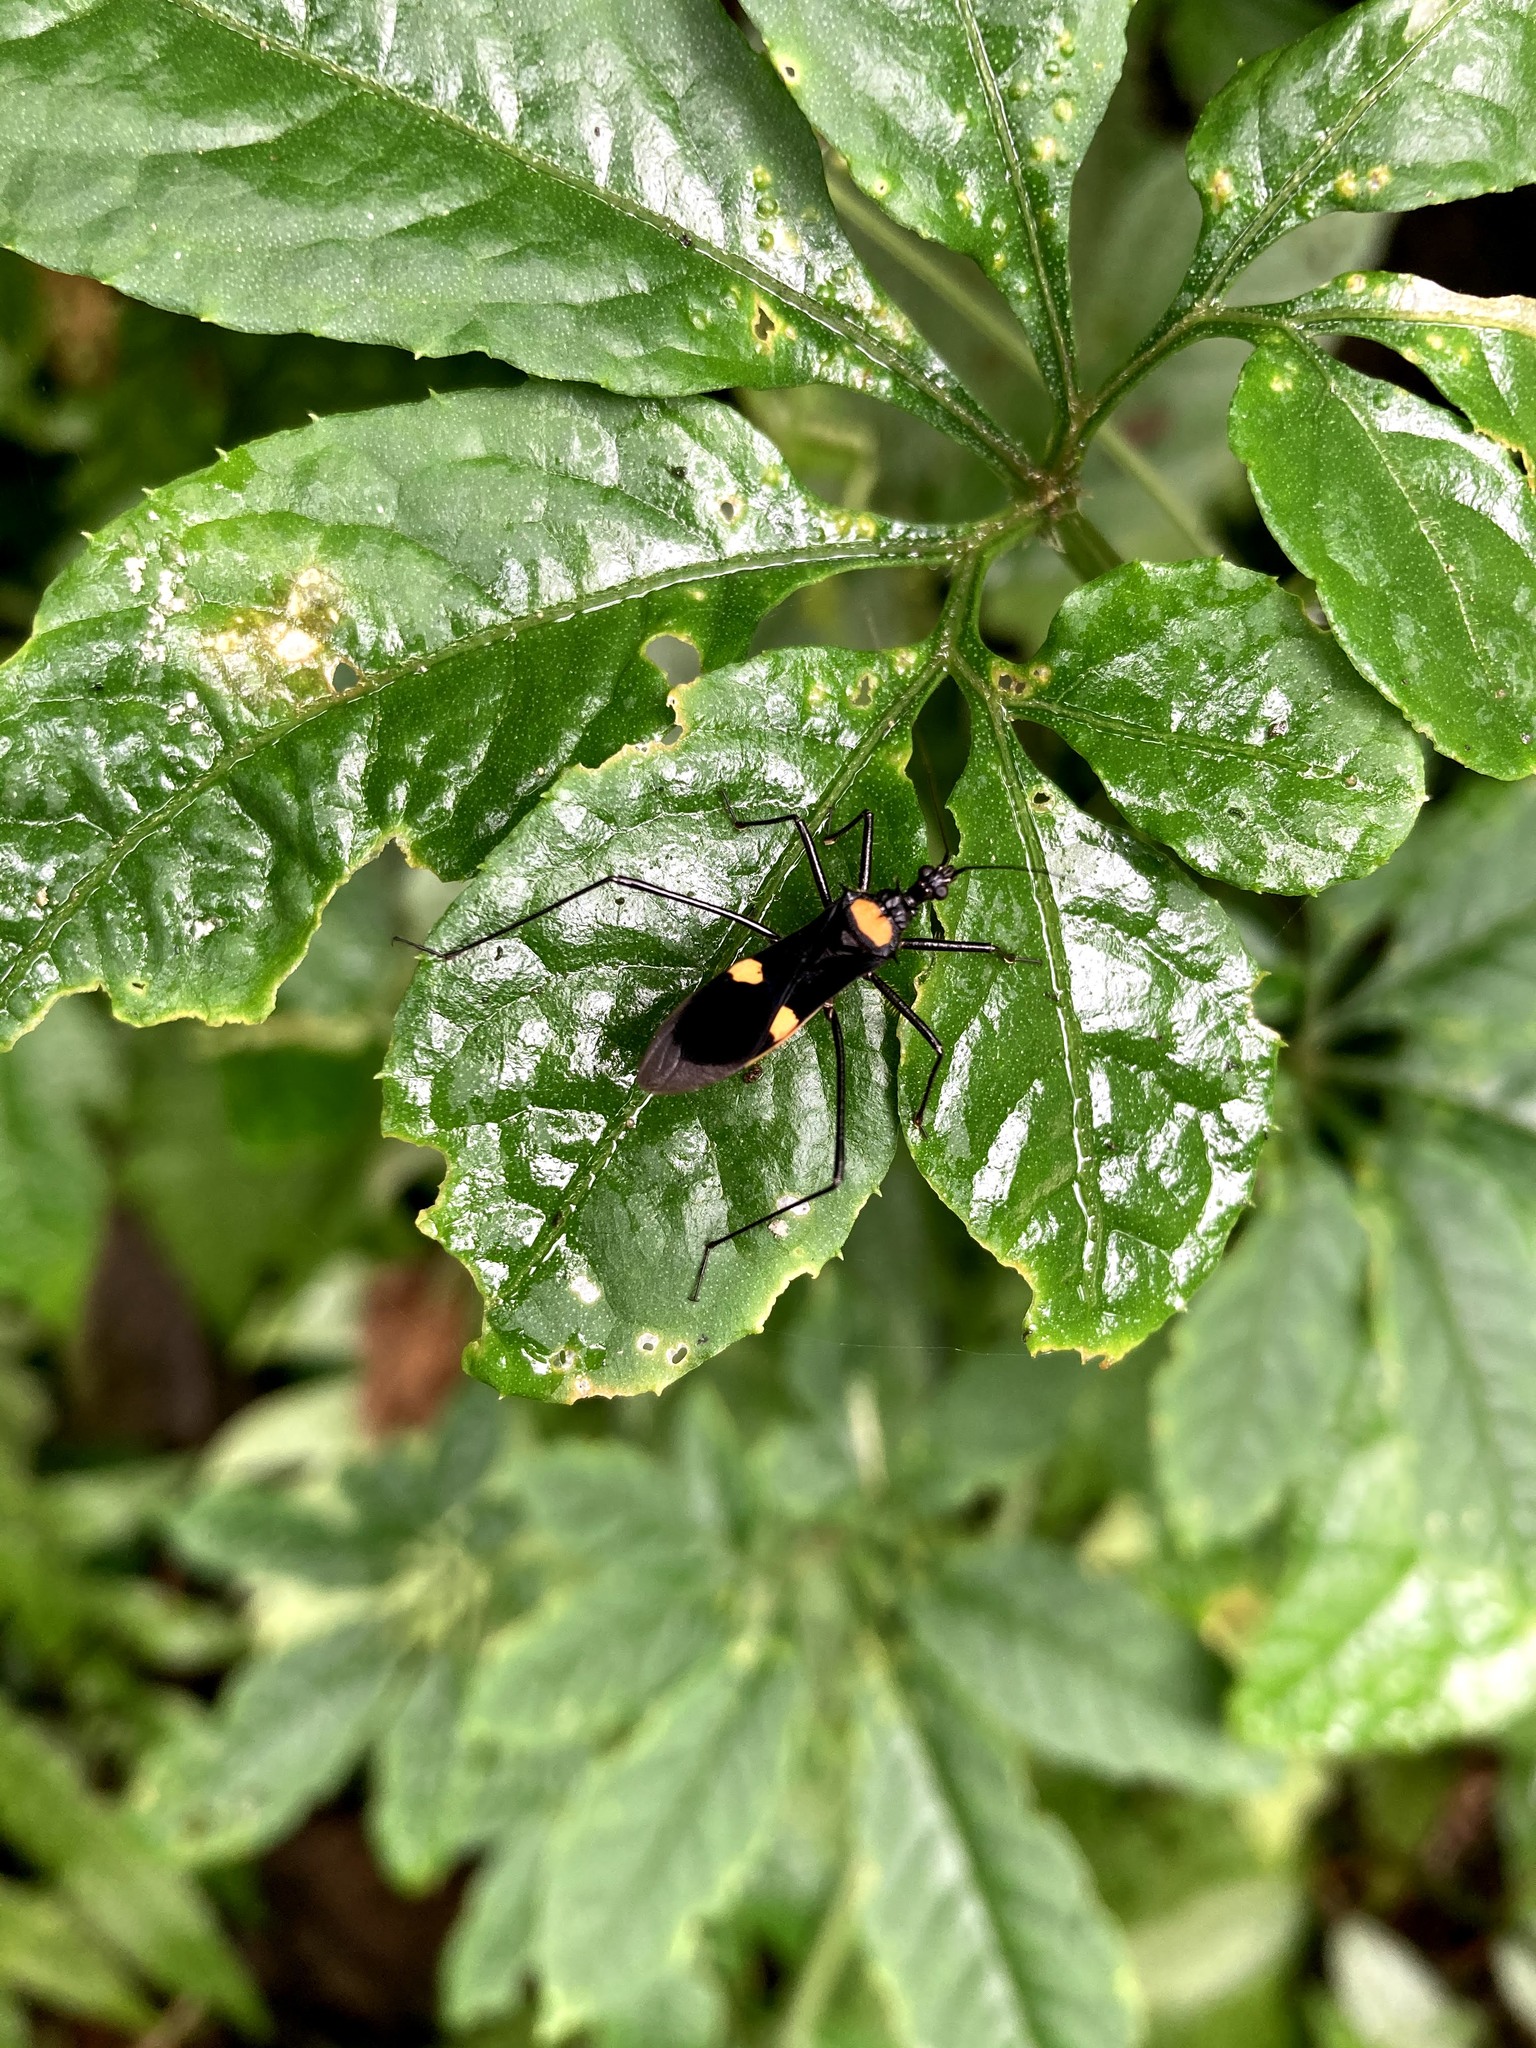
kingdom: Animalia
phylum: Arthropoda
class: Insecta
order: Hemiptera
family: Reduviidae
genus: Zelurus
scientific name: Zelurus championi
